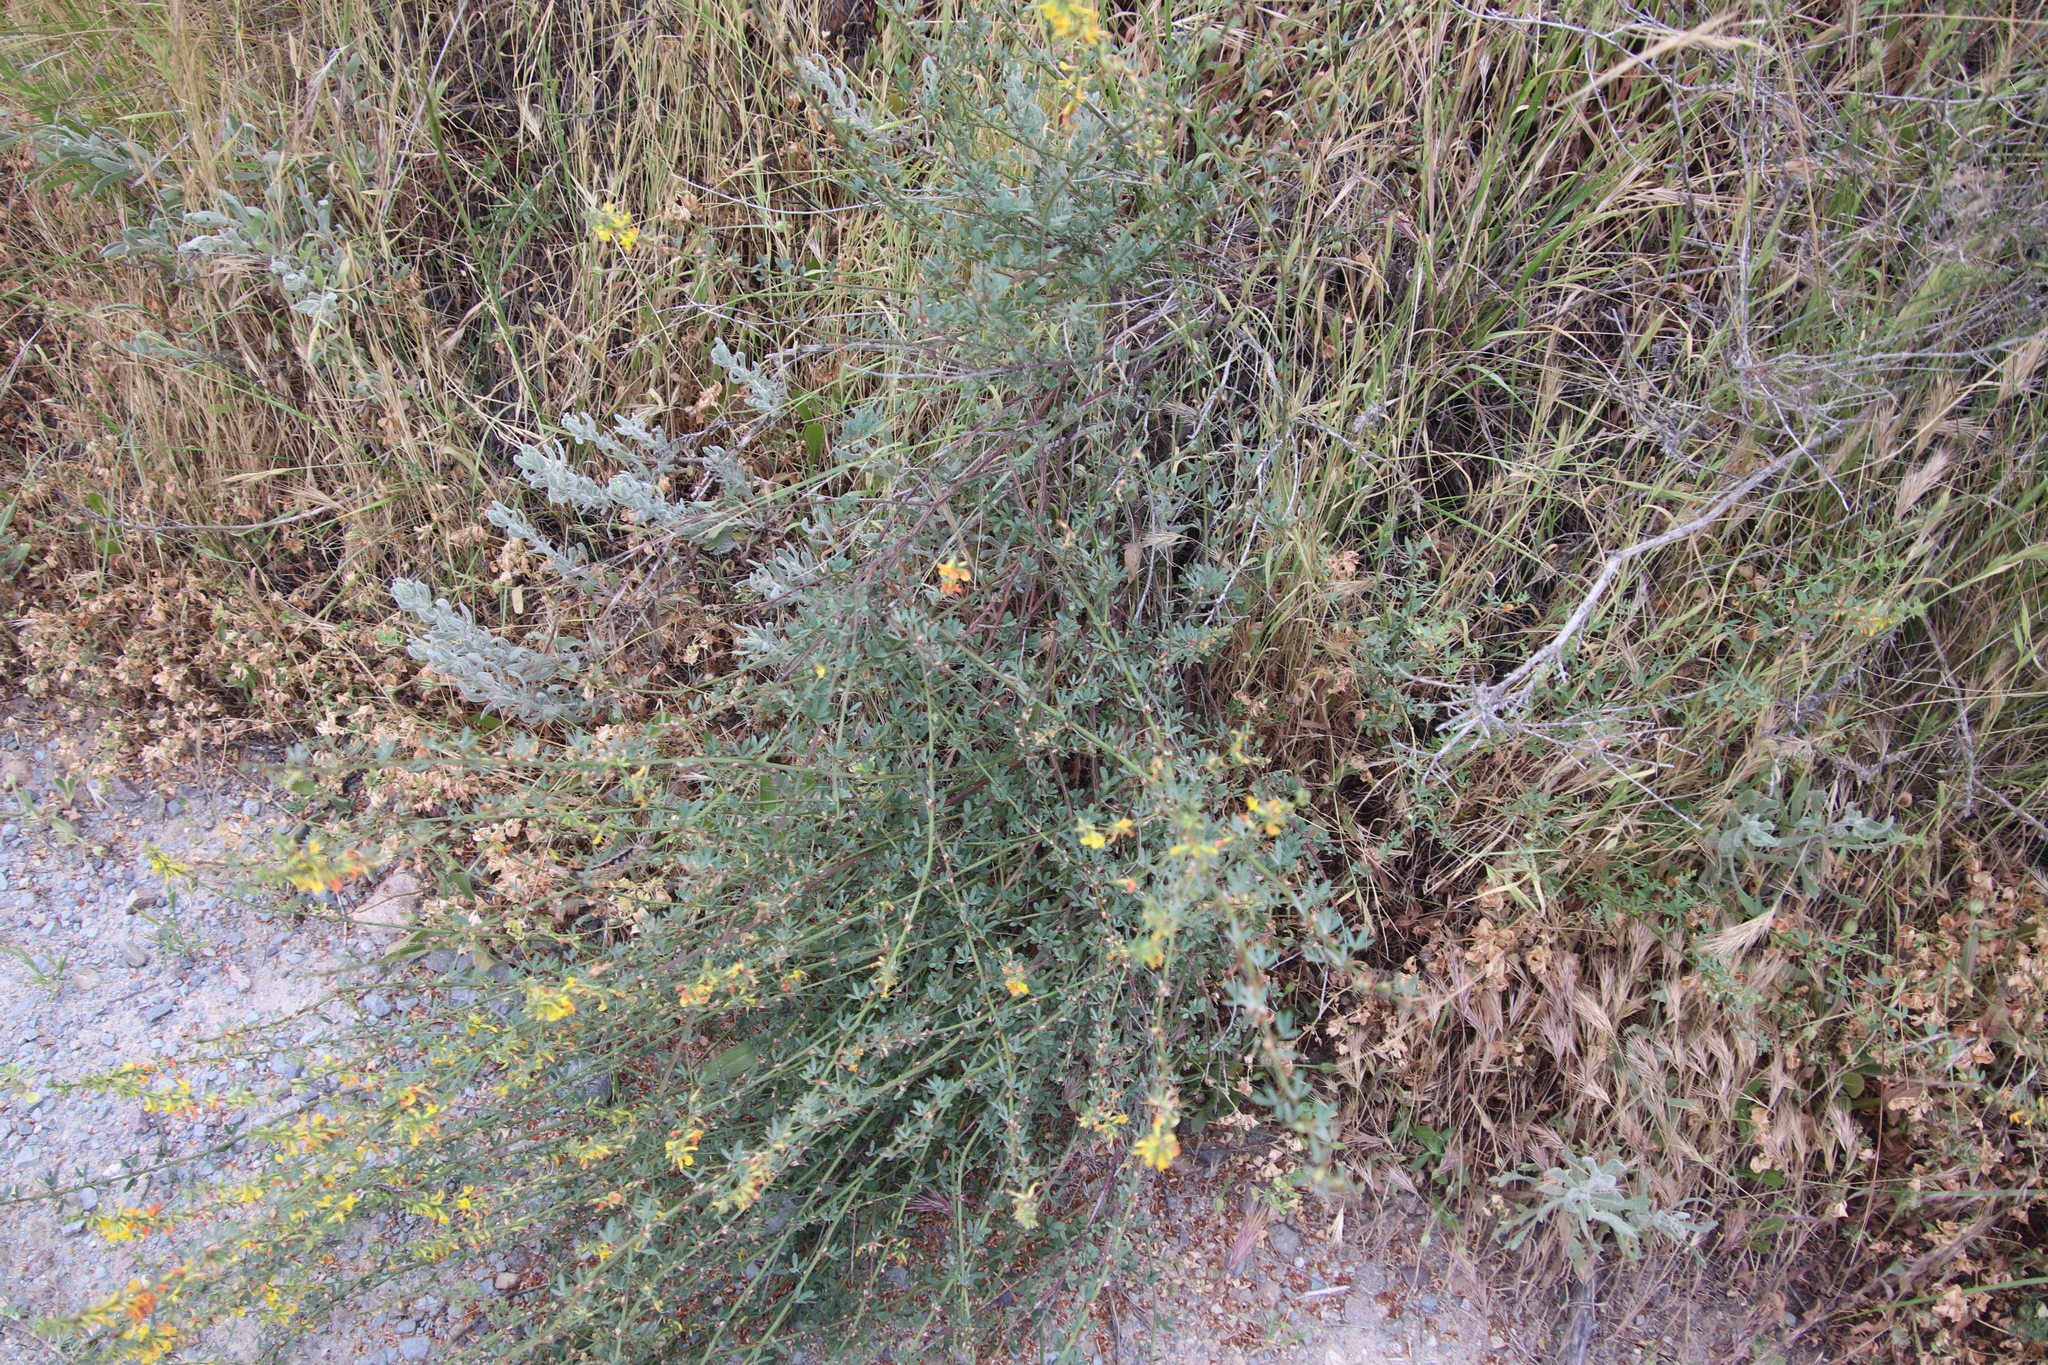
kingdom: Plantae
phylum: Tracheophyta
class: Magnoliopsida
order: Fabales
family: Fabaceae
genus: Acmispon
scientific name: Acmispon glaber
